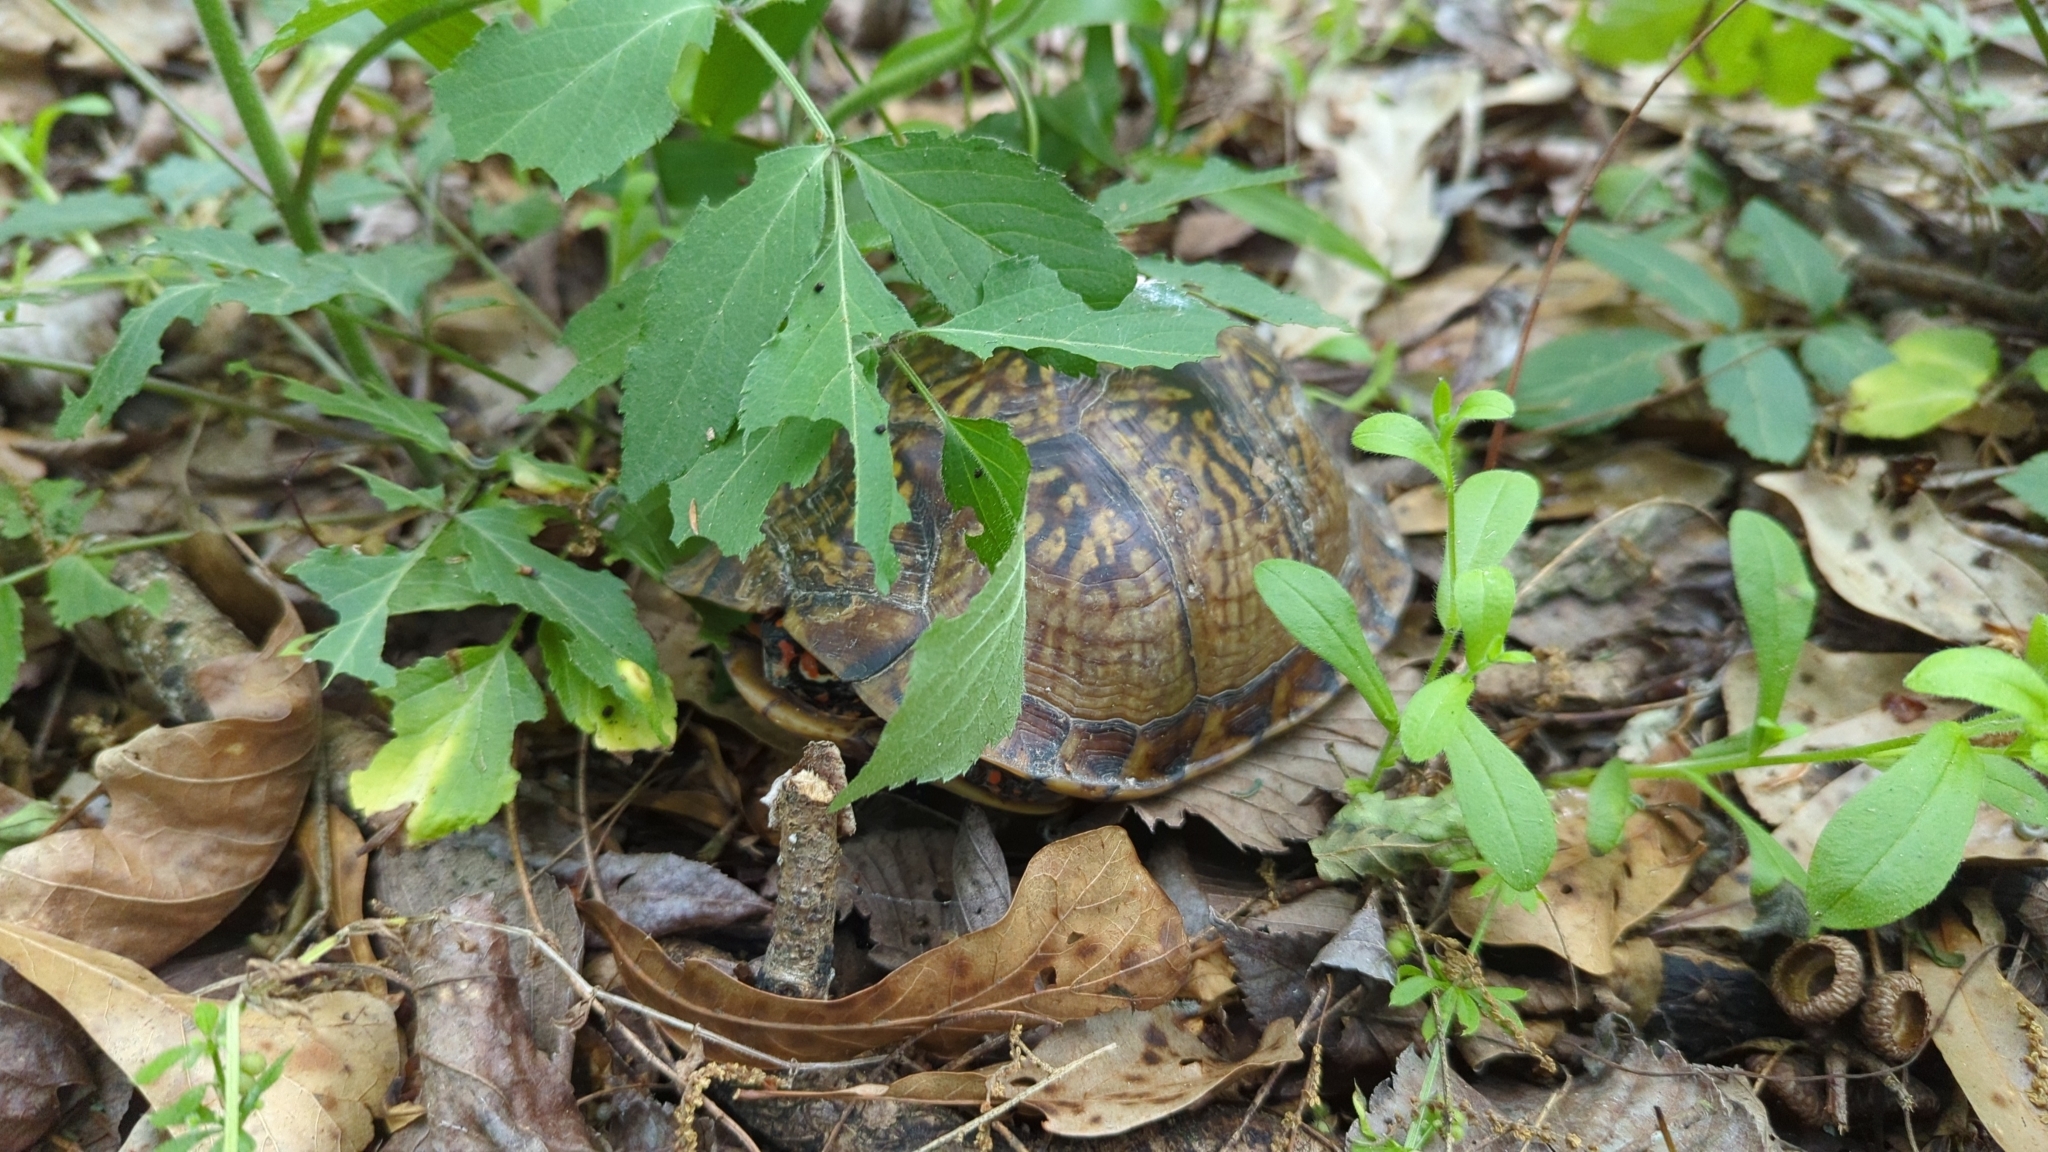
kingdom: Animalia
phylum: Chordata
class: Testudines
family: Emydidae
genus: Terrapene
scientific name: Terrapene carolina
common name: Common box turtle
